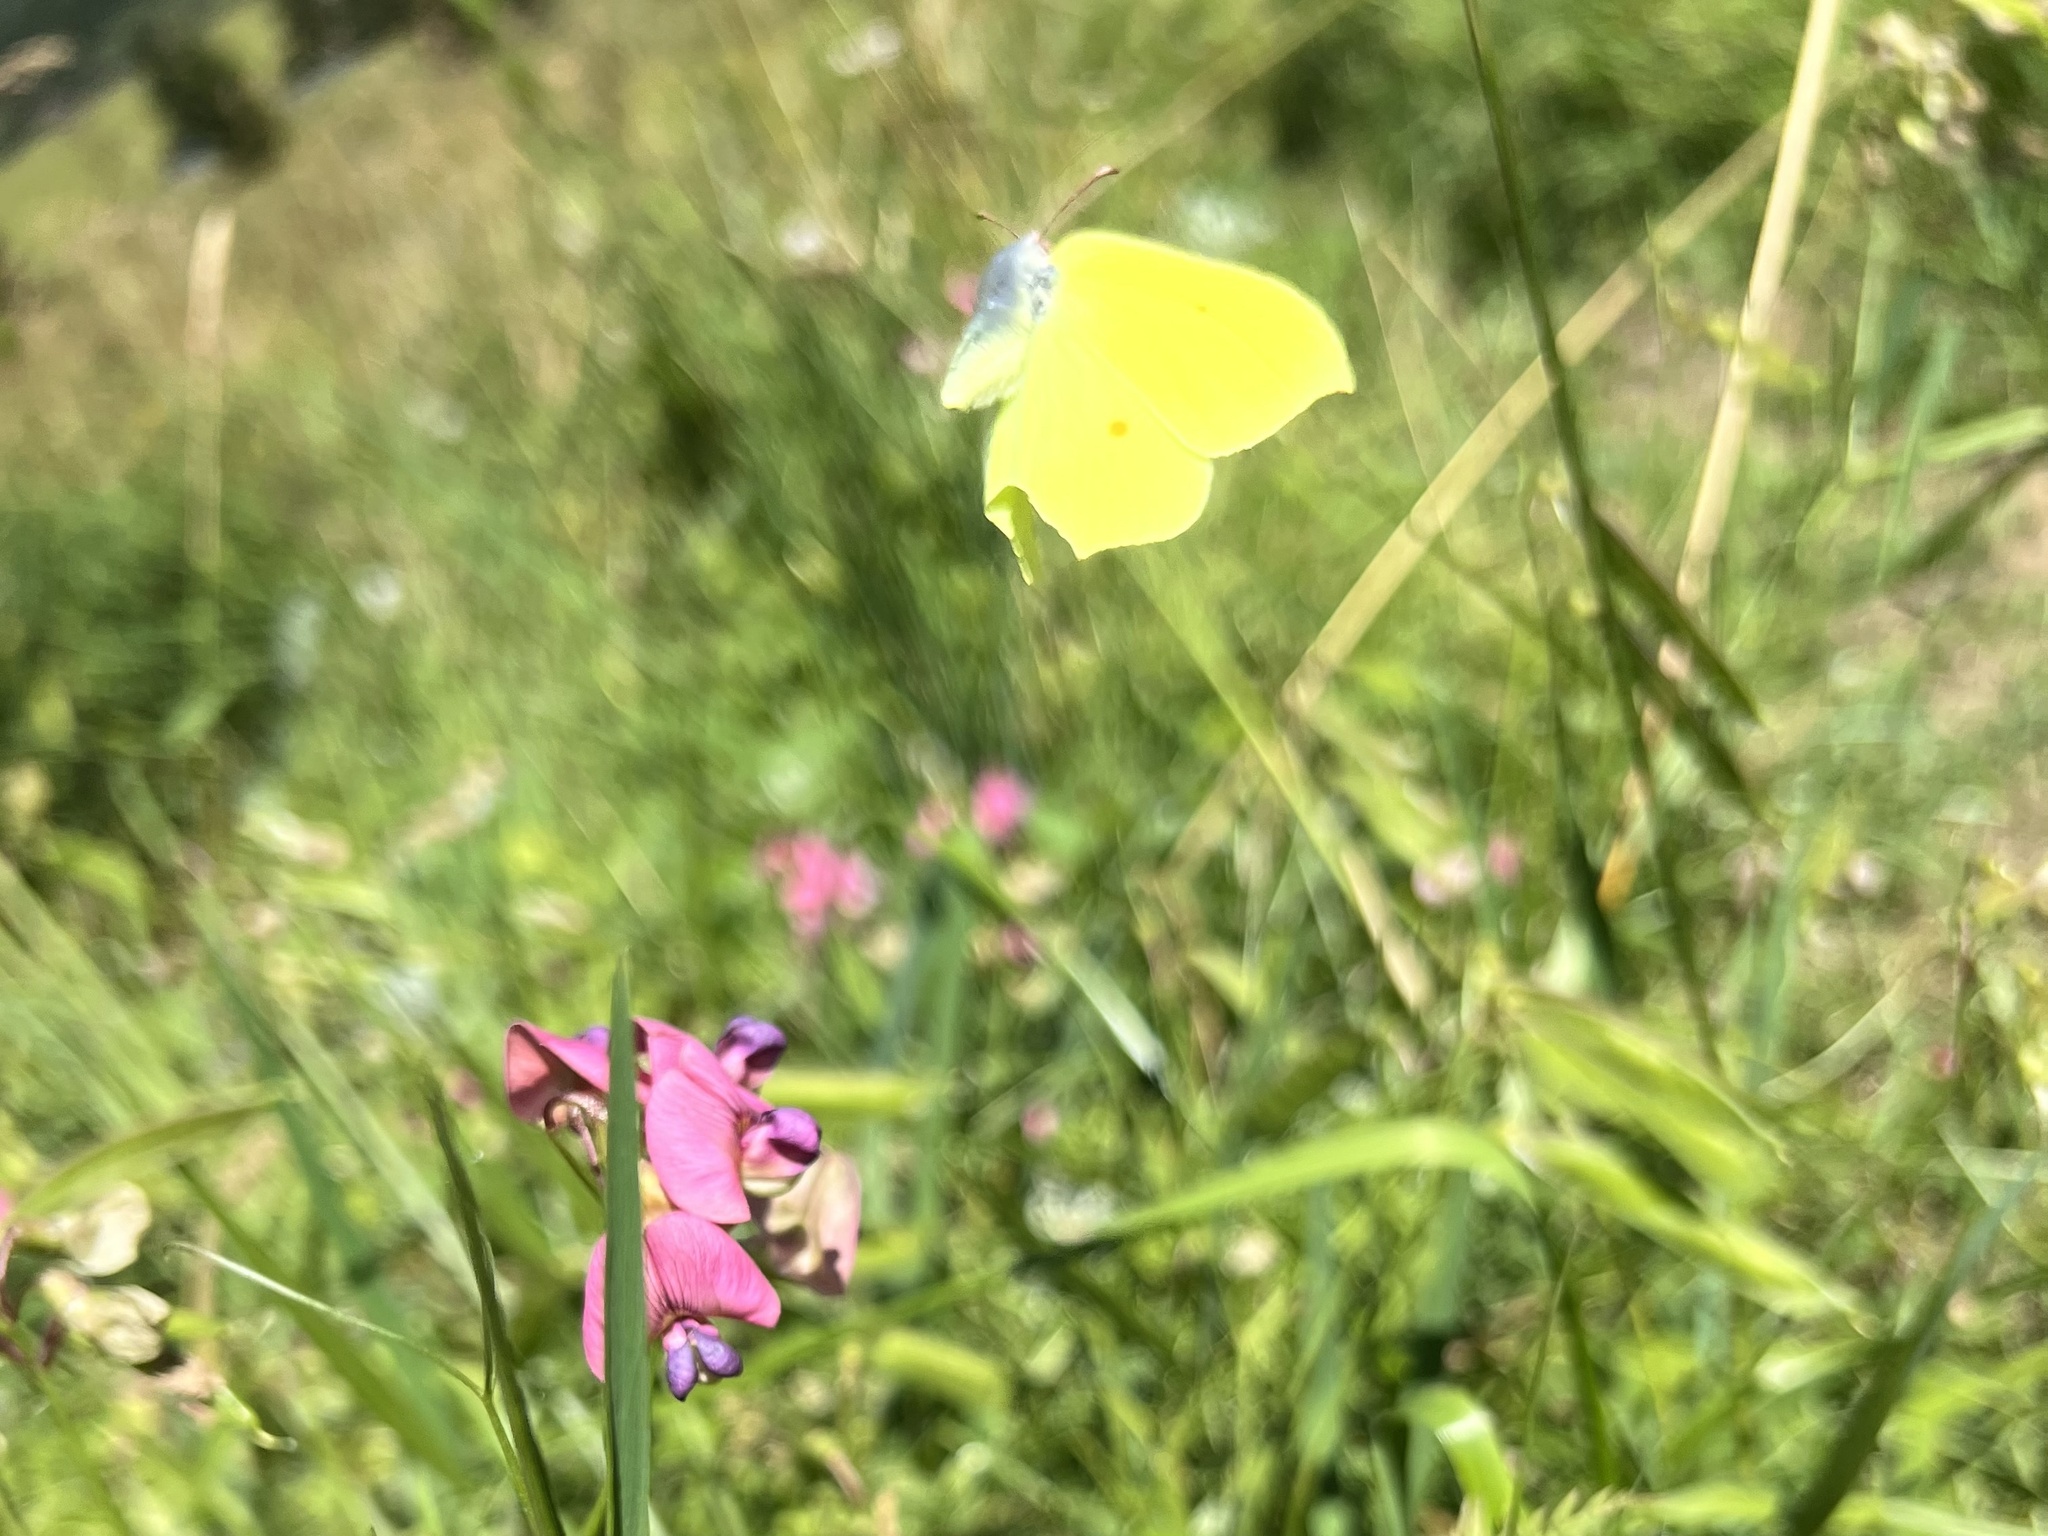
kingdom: Animalia
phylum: Arthropoda
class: Insecta
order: Lepidoptera
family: Pieridae
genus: Gonepteryx
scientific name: Gonepteryx rhamni
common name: Brimstone
